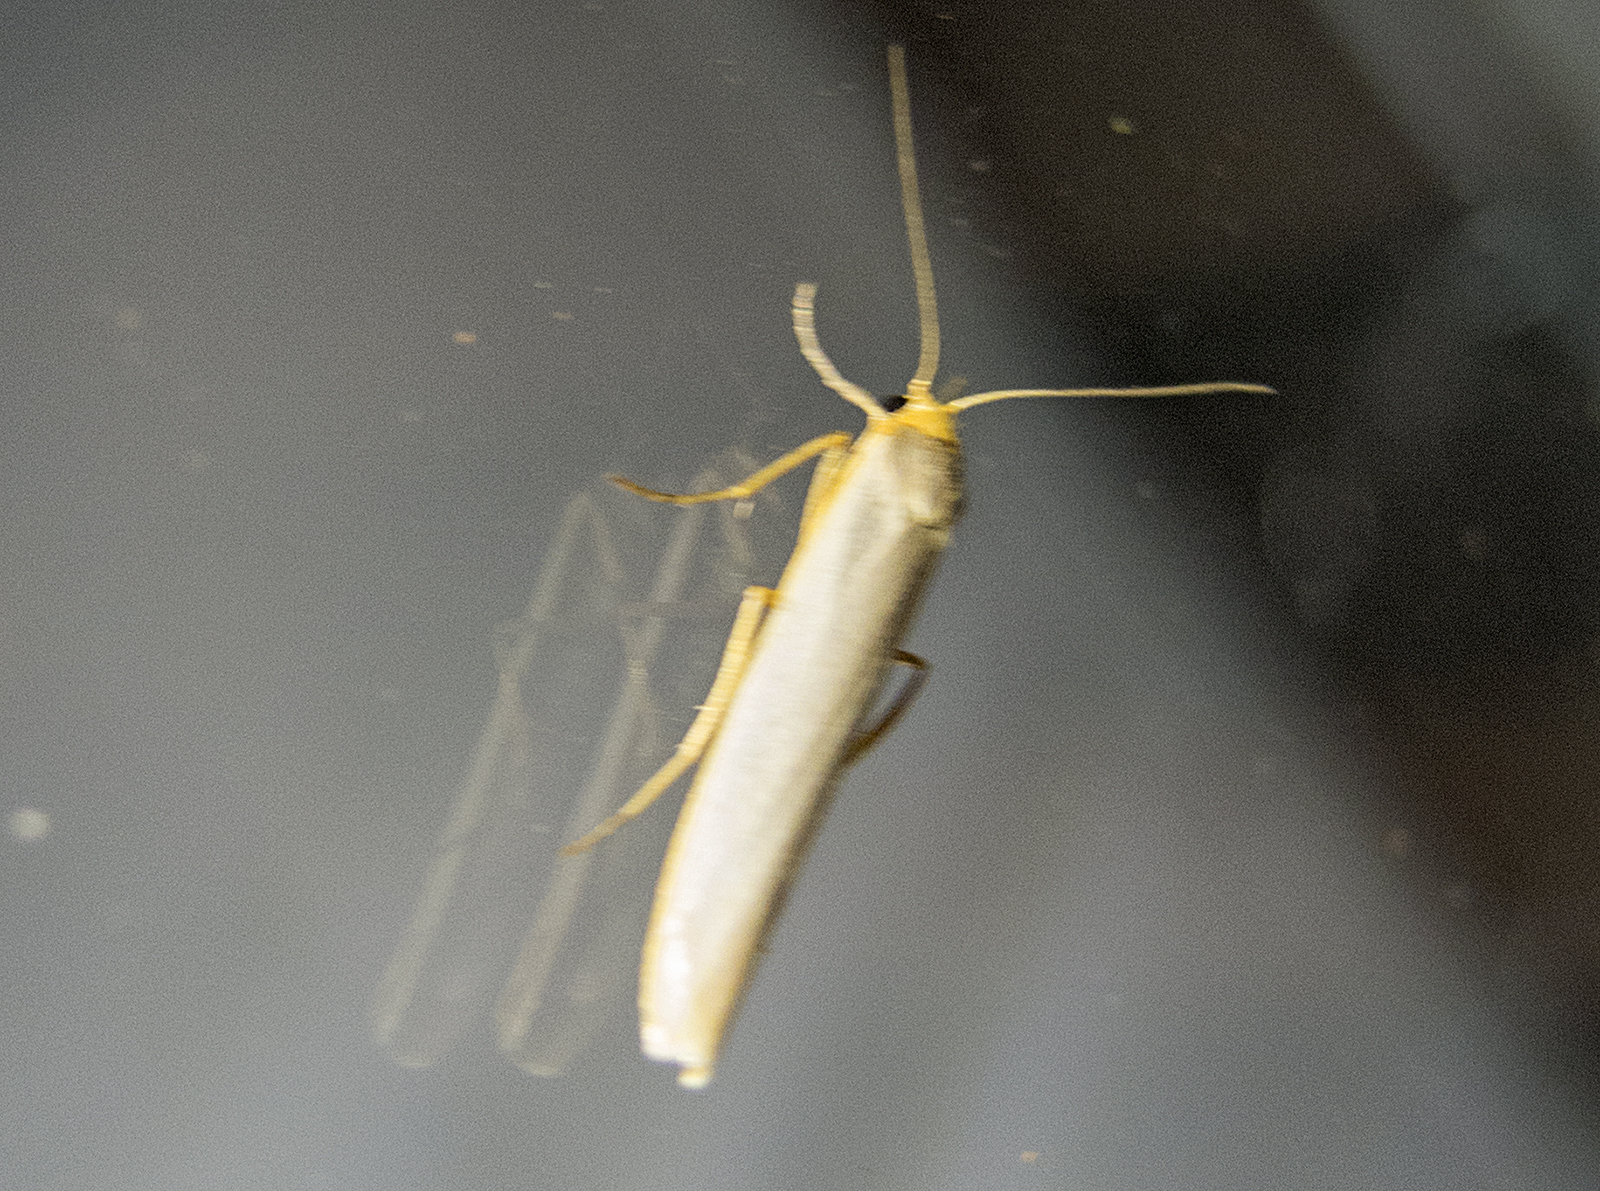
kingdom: Animalia
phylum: Arthropoda
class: Insecta
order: Lepidoptera
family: Erebidae
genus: Eilema
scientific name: Eilema caniola
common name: Hoary footman
